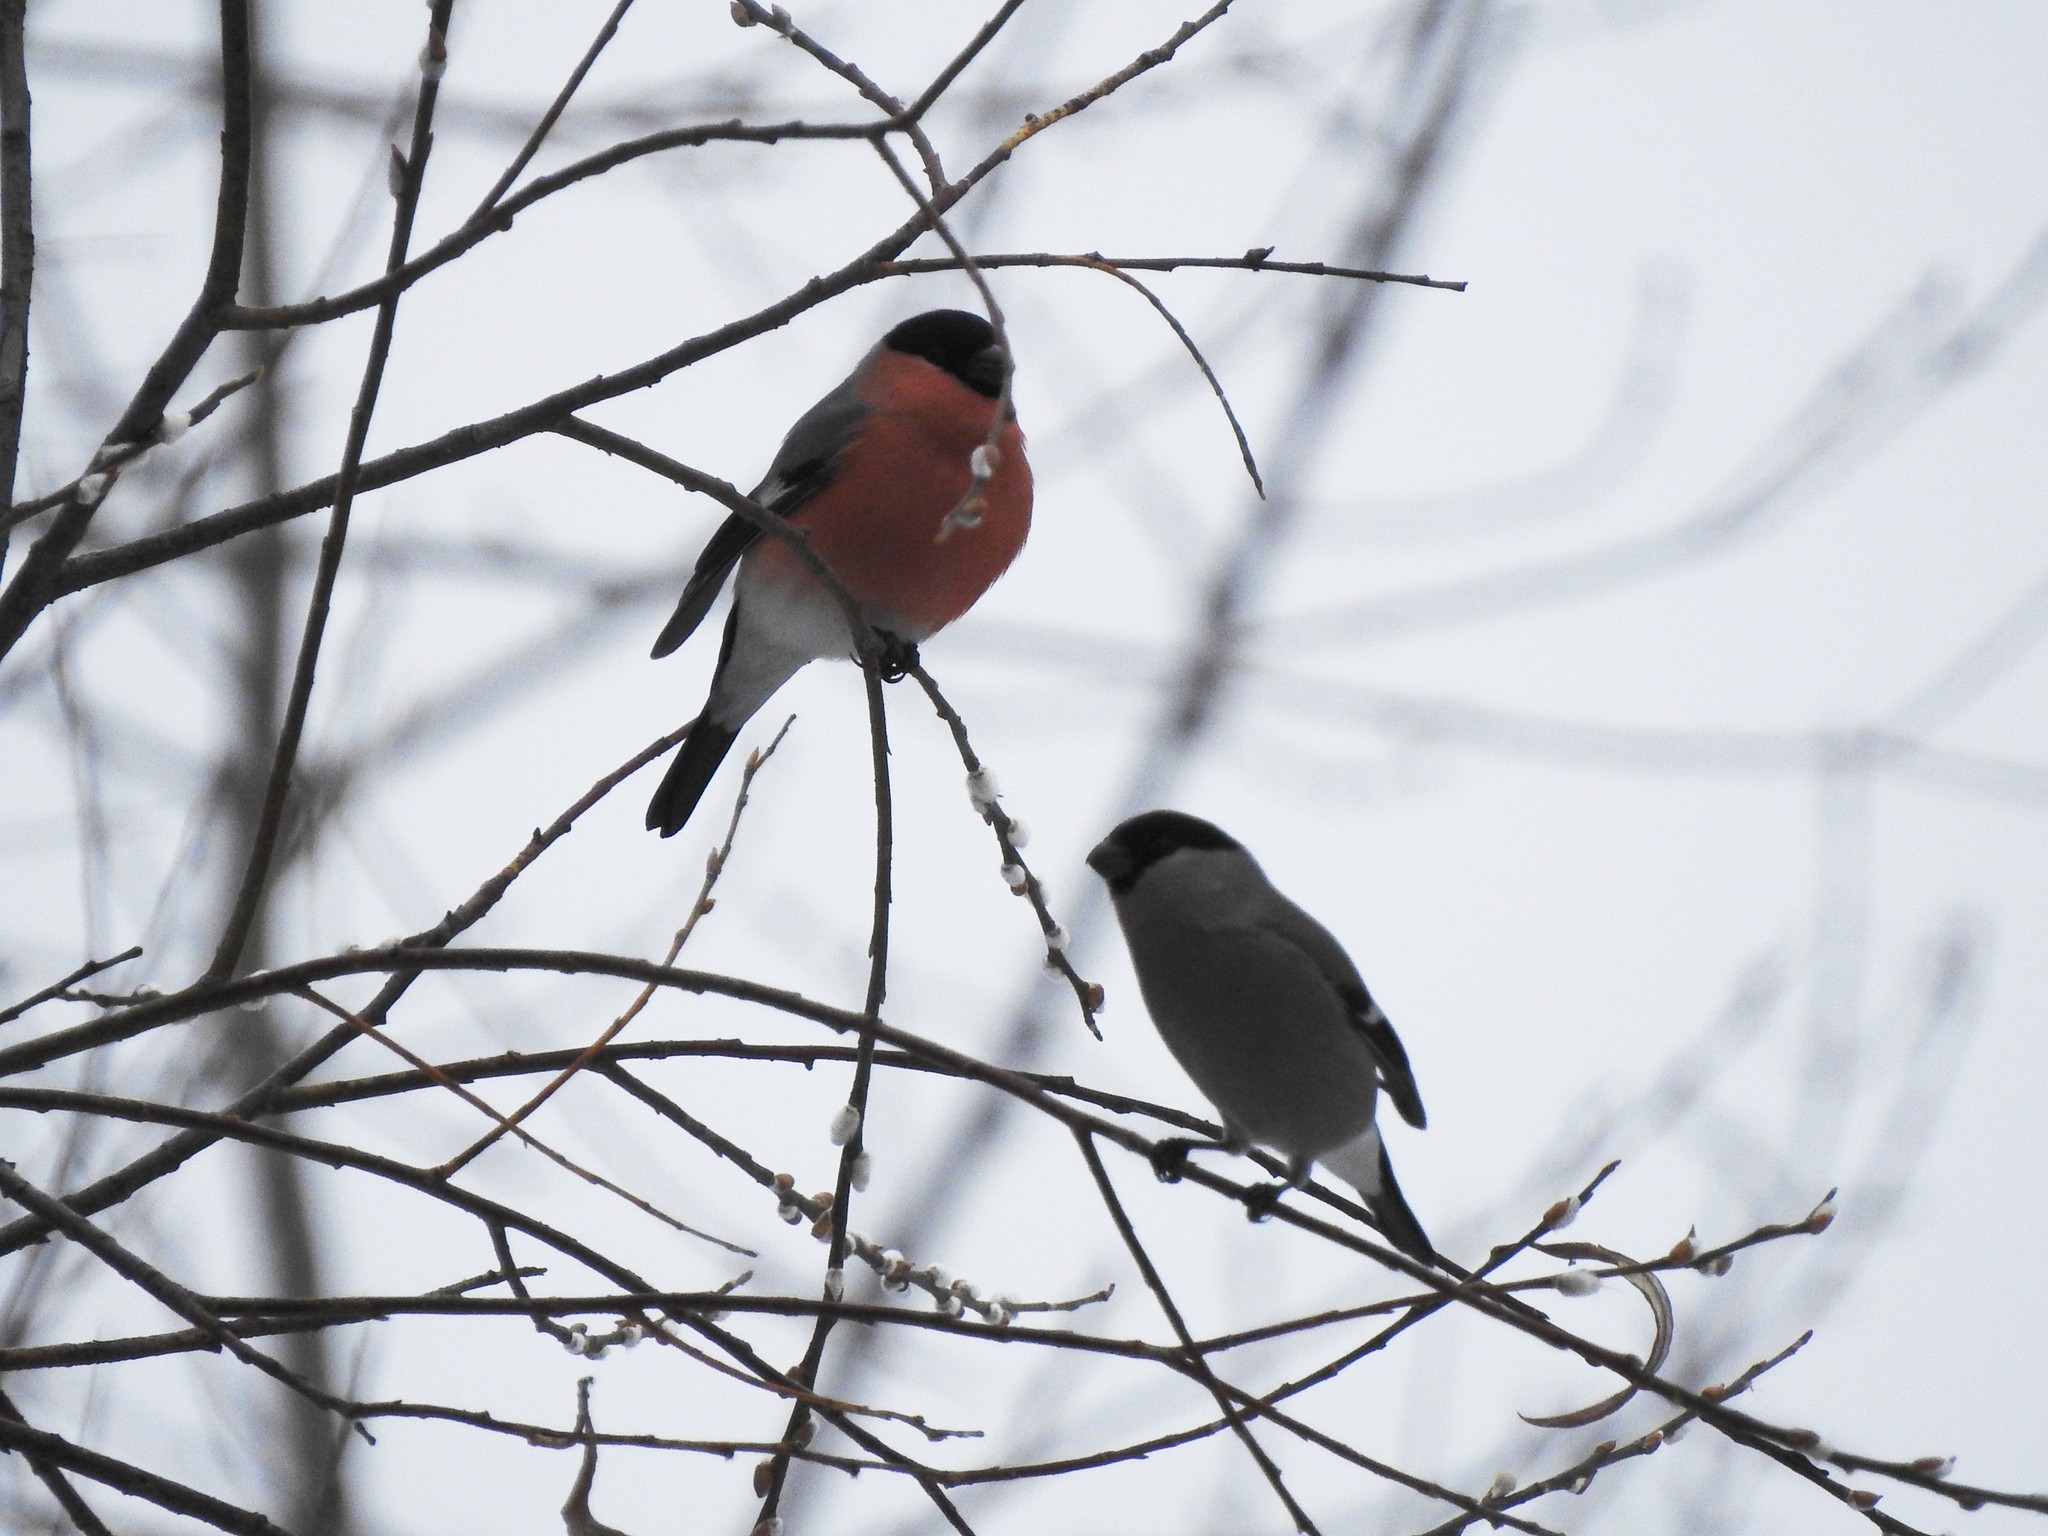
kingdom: Animalia
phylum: Chordata
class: Aves
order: Passeriformes
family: Fringillidae
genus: Pyrrhula
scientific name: Pyrrhula pyrrhula
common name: Eurasian bullfinch
